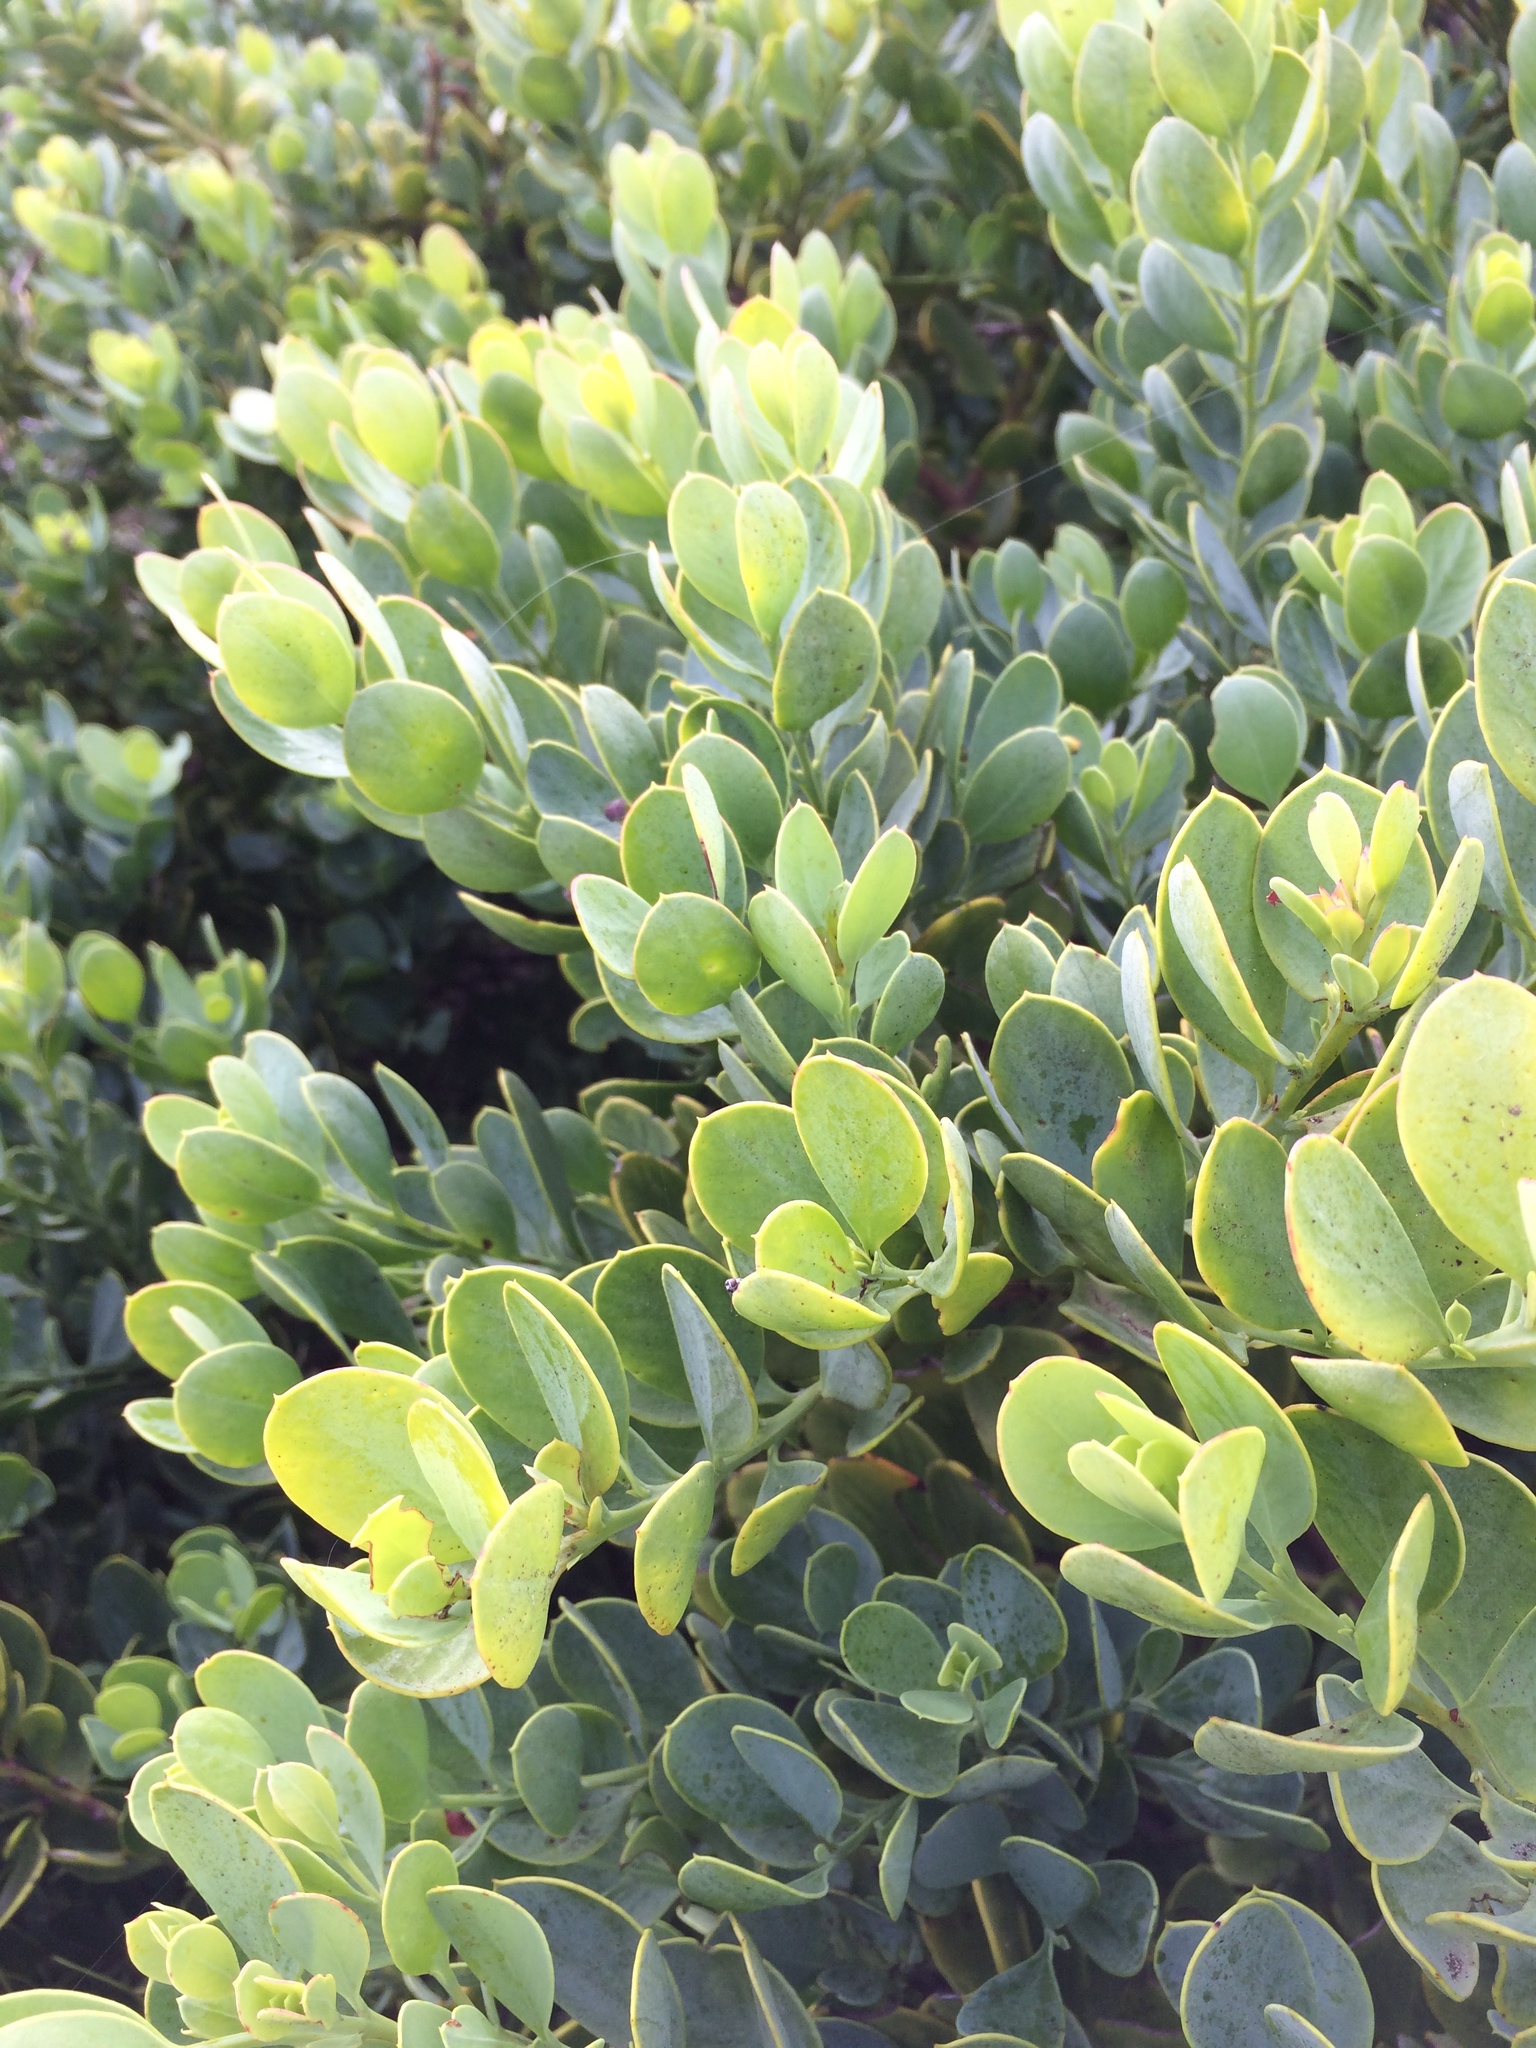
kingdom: Plantae
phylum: Tracheophyta
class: Magnoliopsida
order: Santalales
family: Santalaceae
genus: Osyris
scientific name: Osyris compressa
